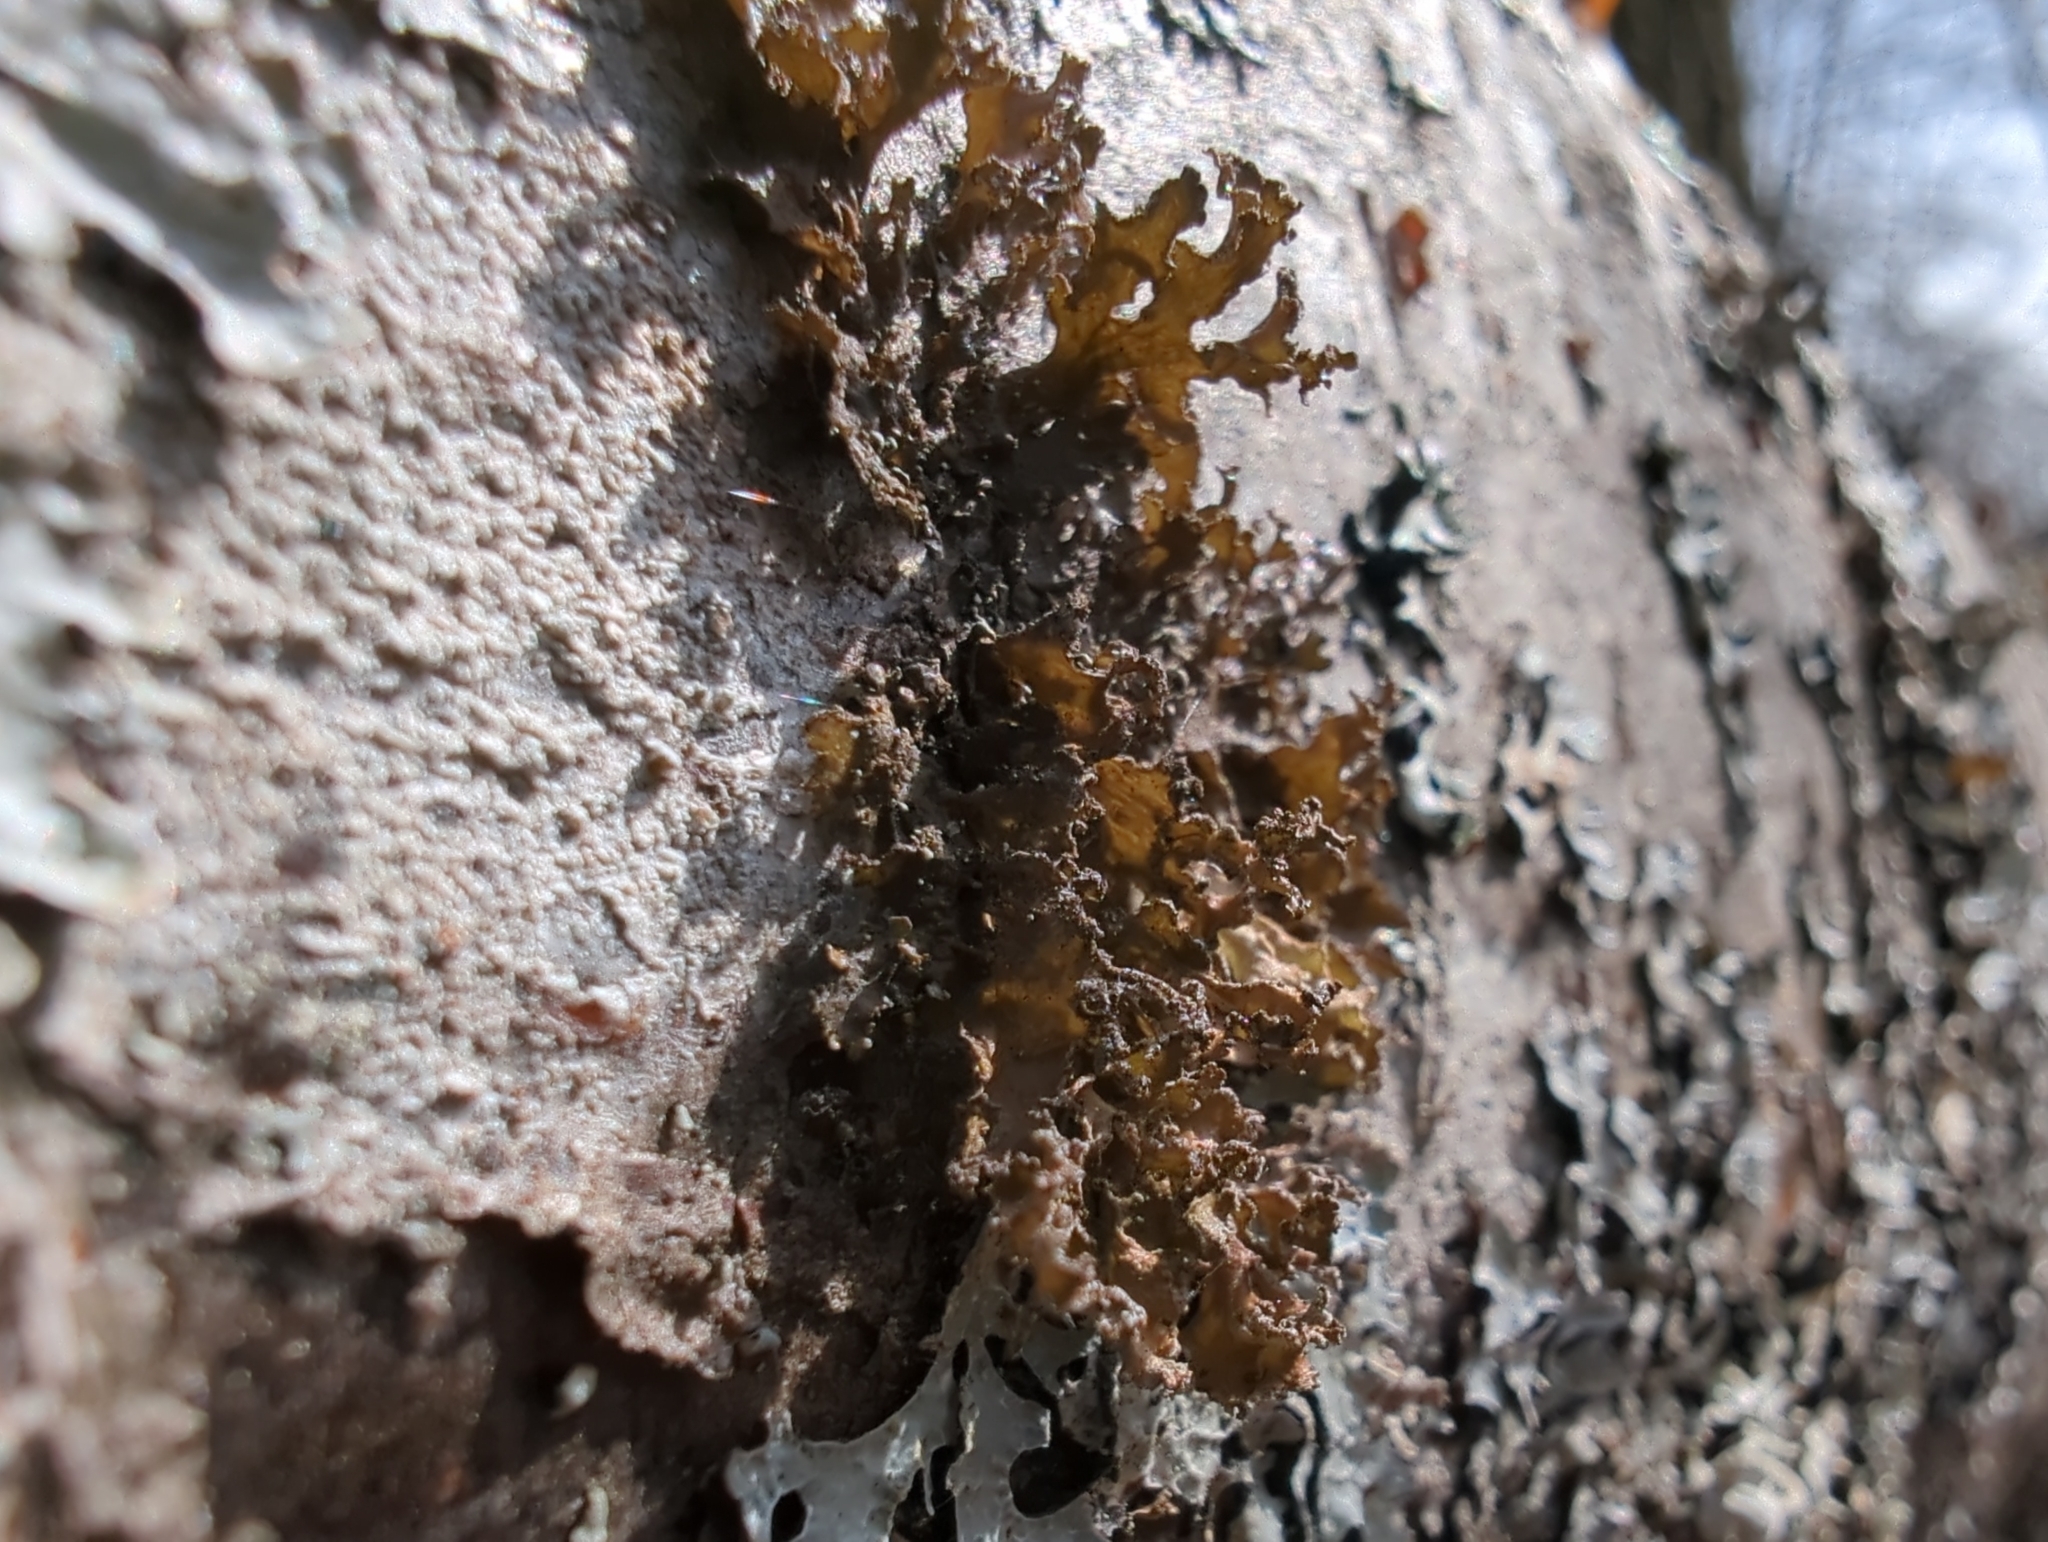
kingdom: Fungi
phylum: Ascomycota
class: Lecanoromycetes
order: Lecanorales
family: Parmeliaceae
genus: Nephromopsis
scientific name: Nephromopsis chlorophylla
